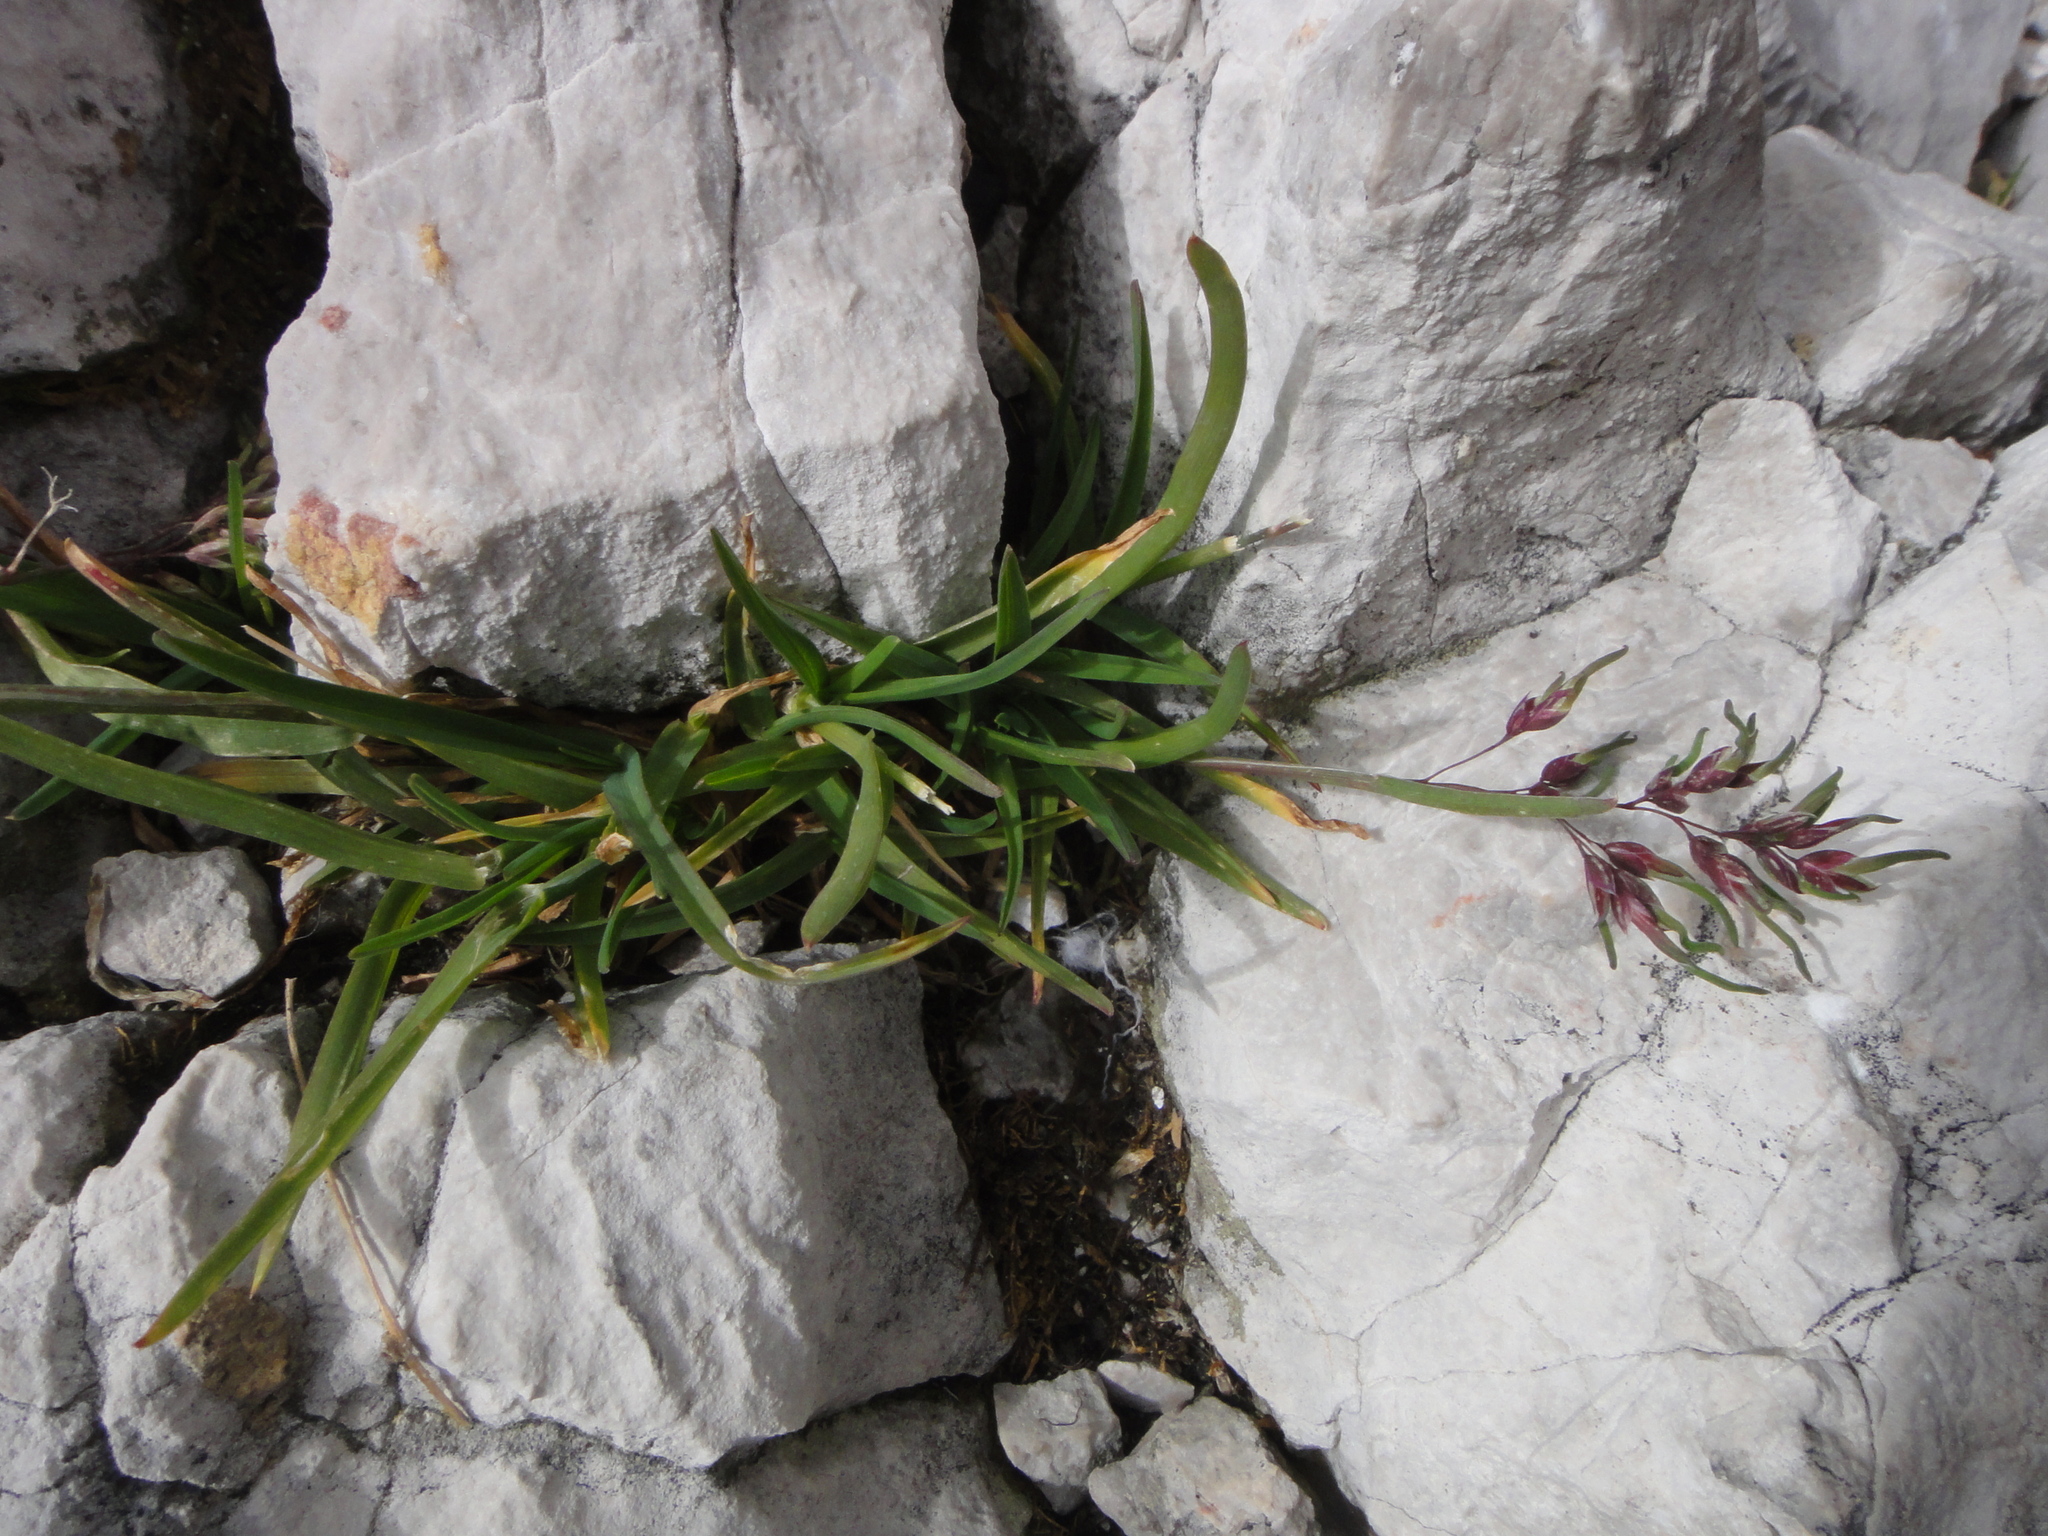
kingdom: Plantae
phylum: Tracheophyta
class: Liliopsida
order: Poales
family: Poaceae
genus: Poa
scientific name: Poa alpina
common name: Alpine bluegrass
